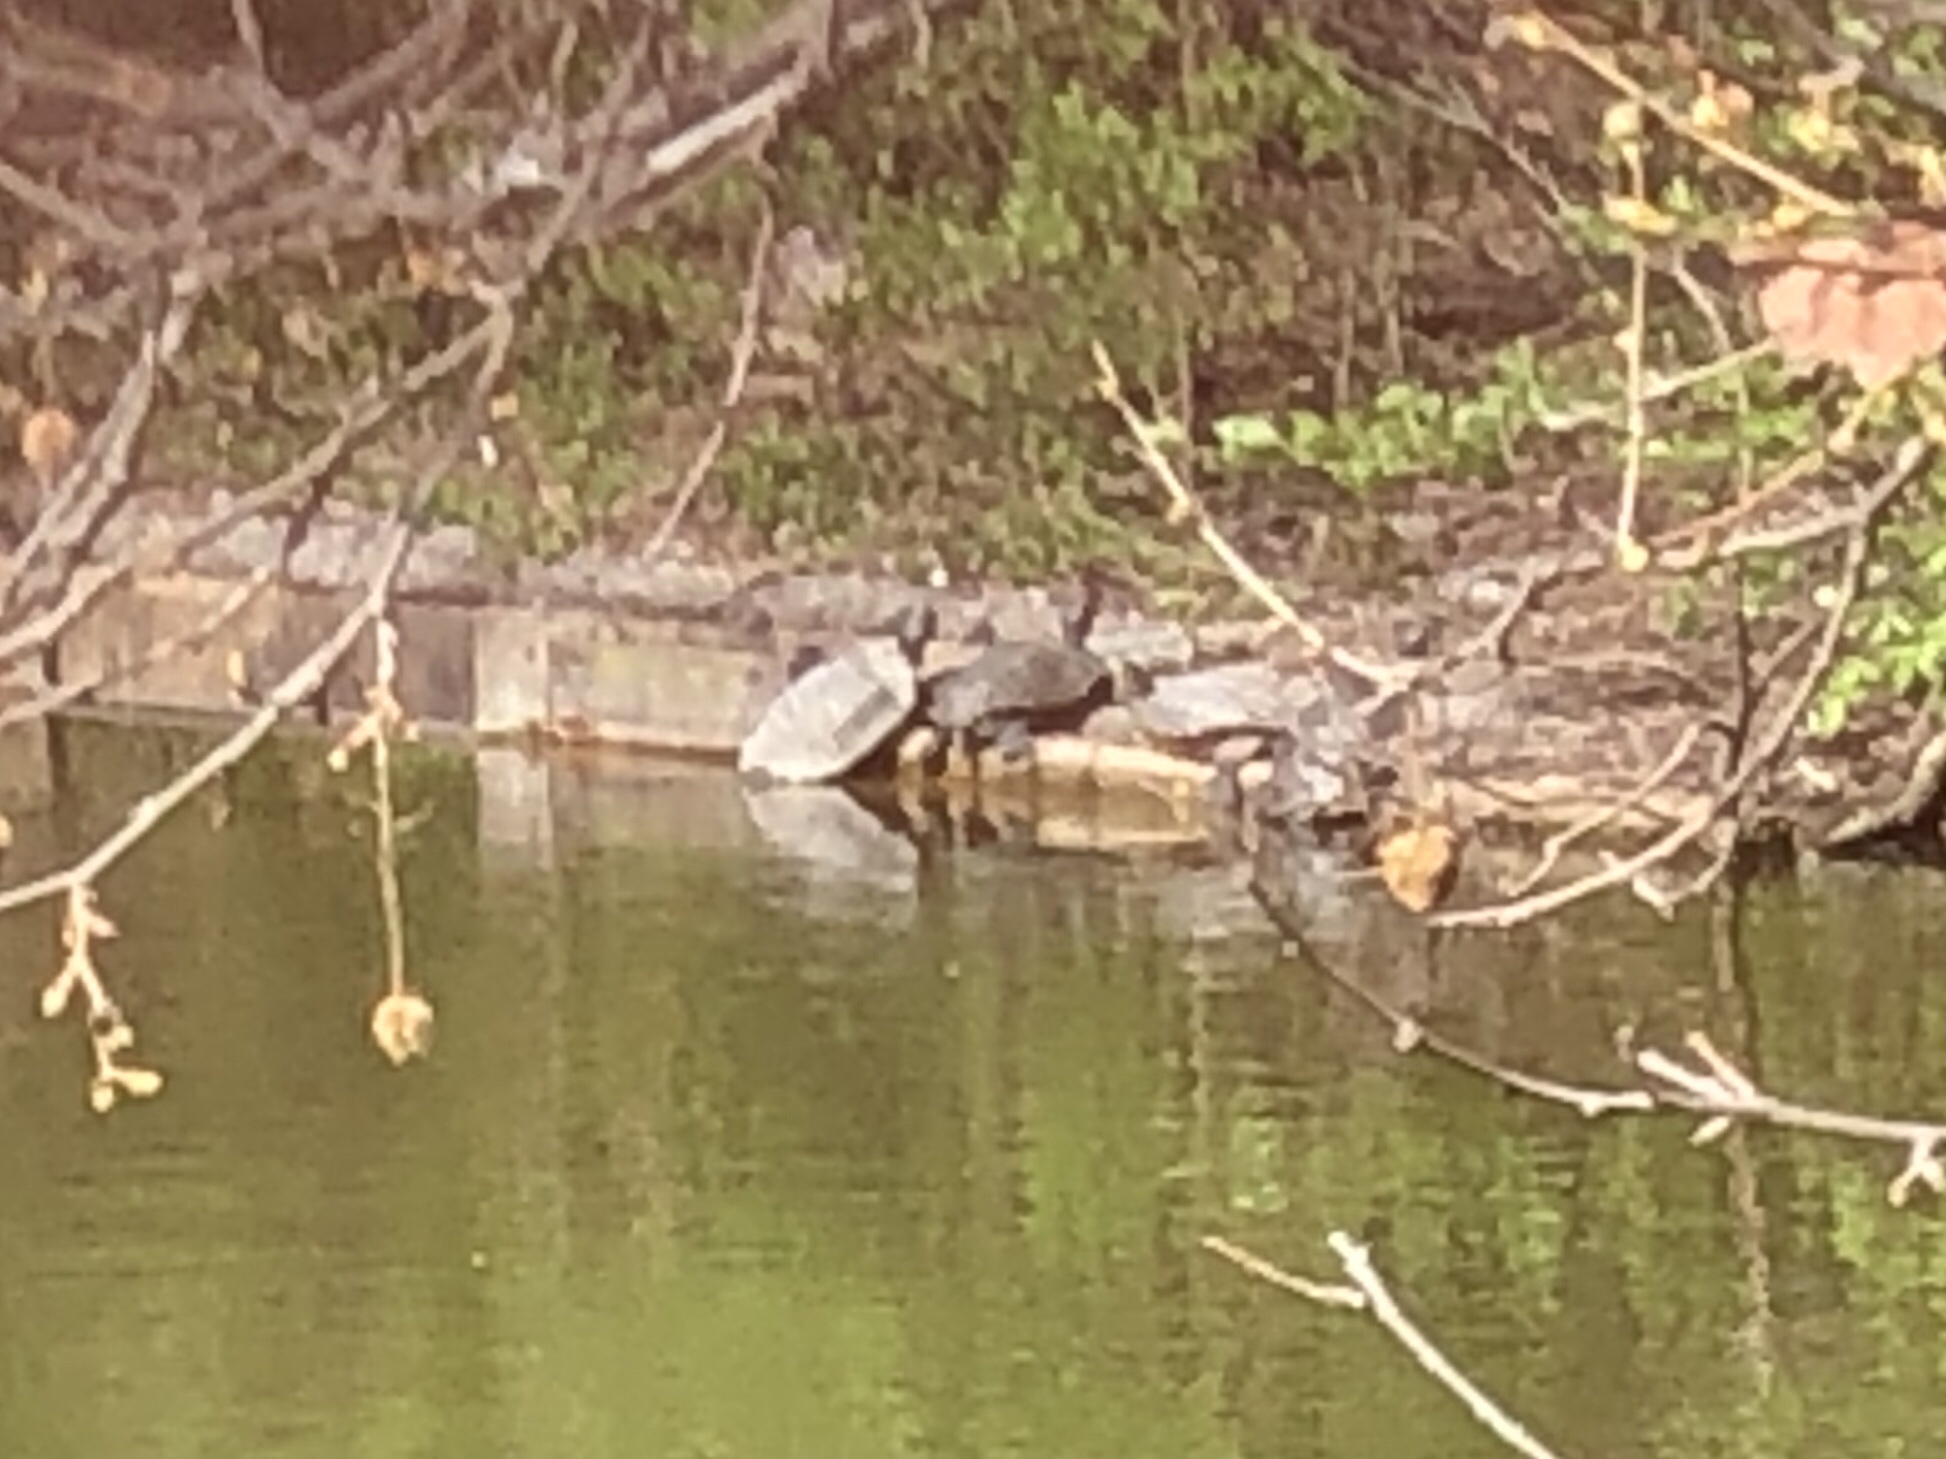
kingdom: Animalia
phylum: Chordata
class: Testudines
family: Emydidae
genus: Trachemys
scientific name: Trachemys scripta
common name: Slider
